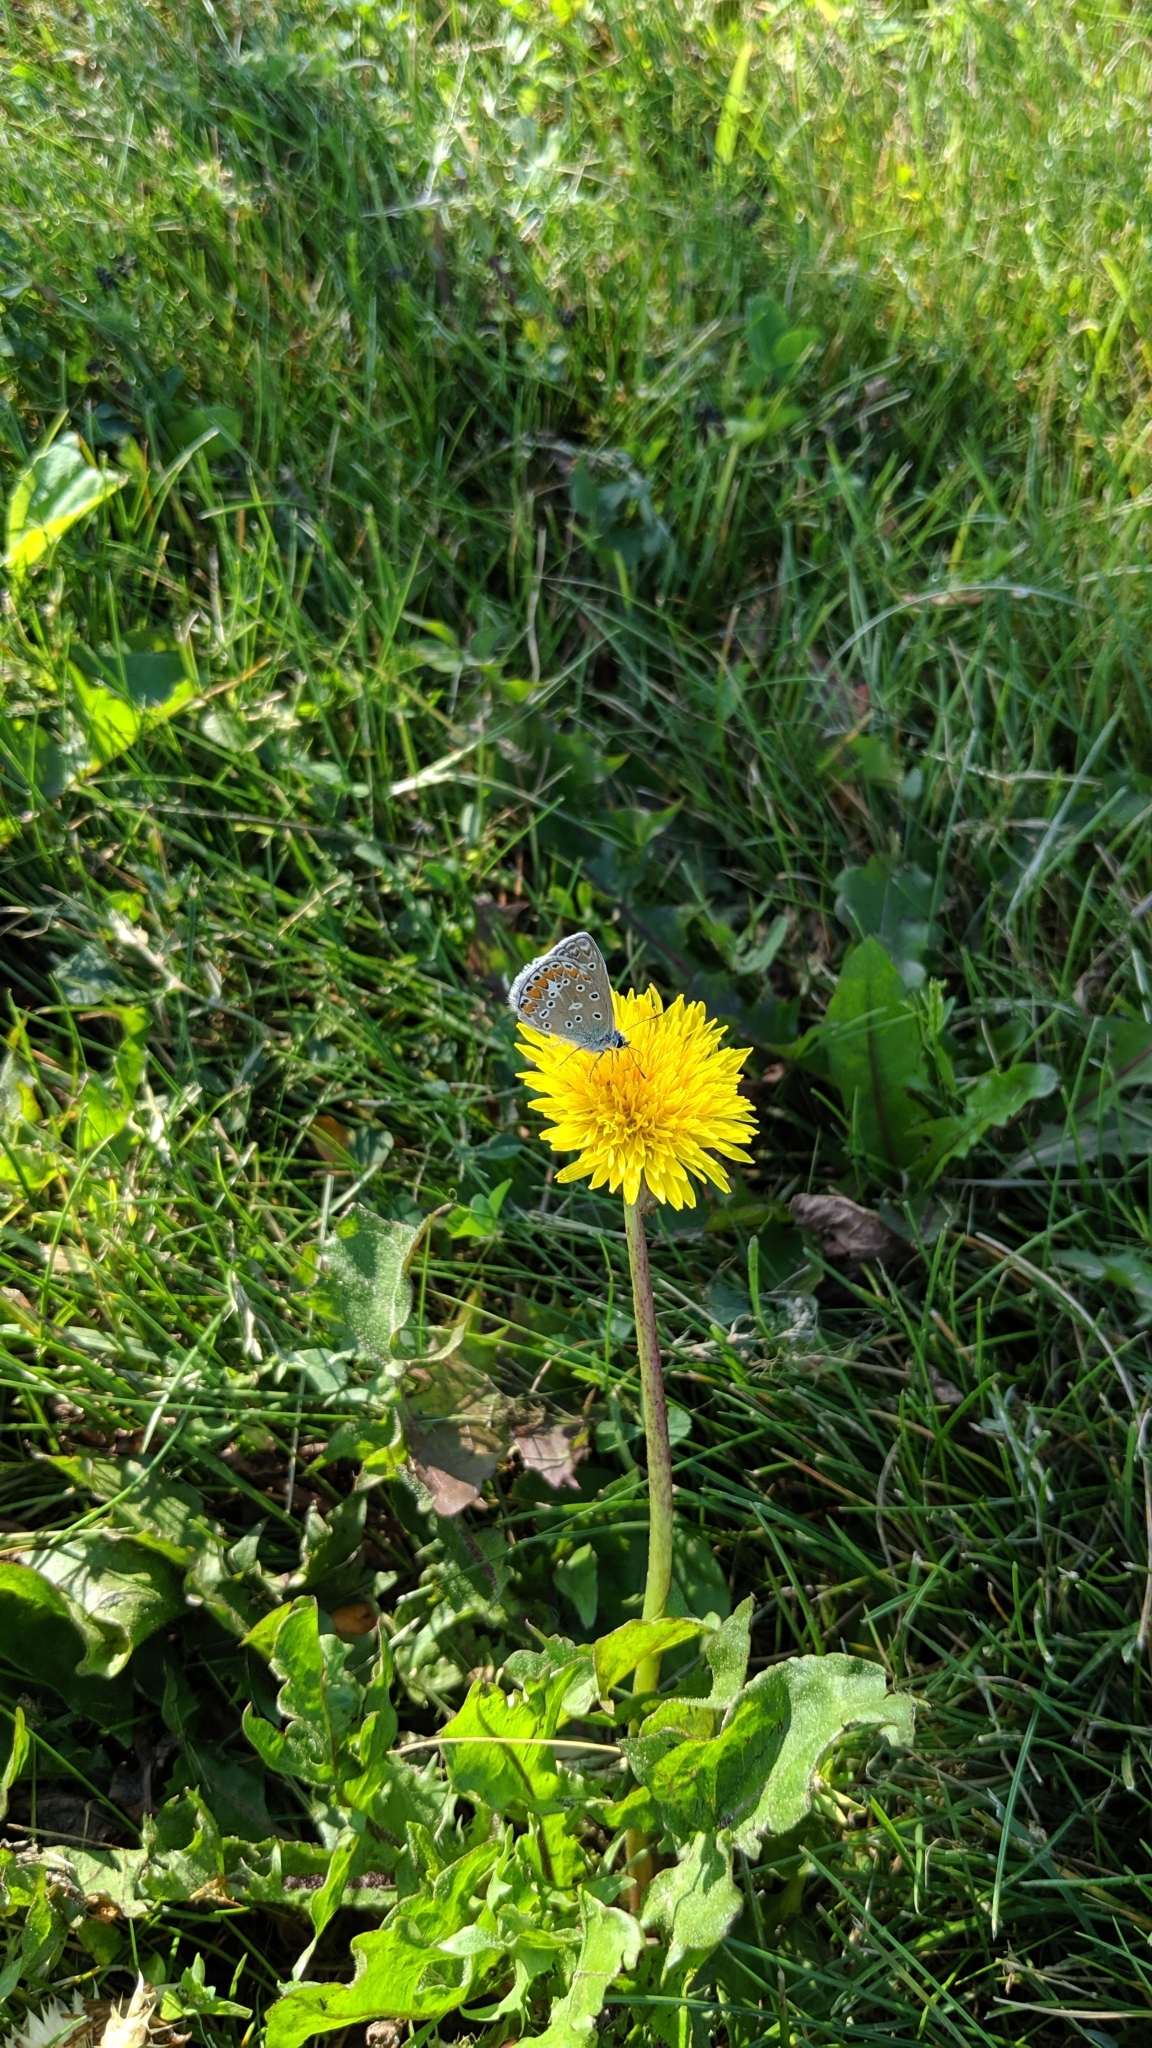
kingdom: Animalia
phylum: Arthropoda
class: Insecta
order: Lepidoptera
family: Lycaenidae
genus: Polyommatus
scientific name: Polyommatus icarus
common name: Common blue
